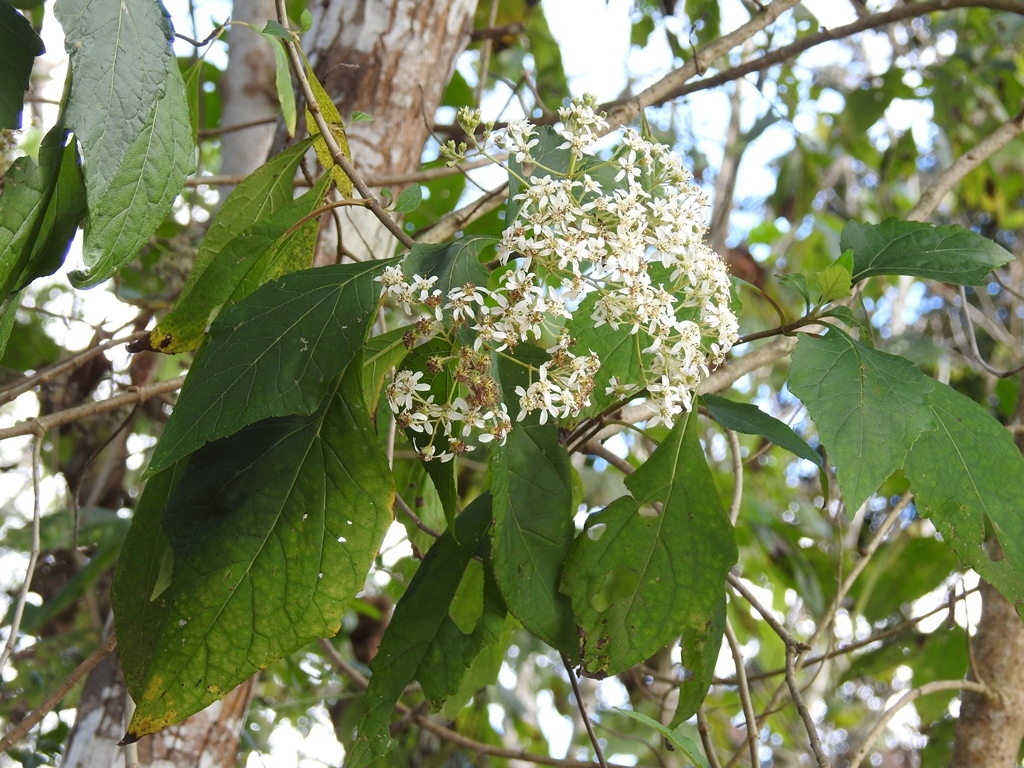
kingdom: Plantae
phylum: Tracheophyta
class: Magnoliopsida
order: Asterales
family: Asteraceae
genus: Montanoa
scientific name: Montanoa tomentosa
